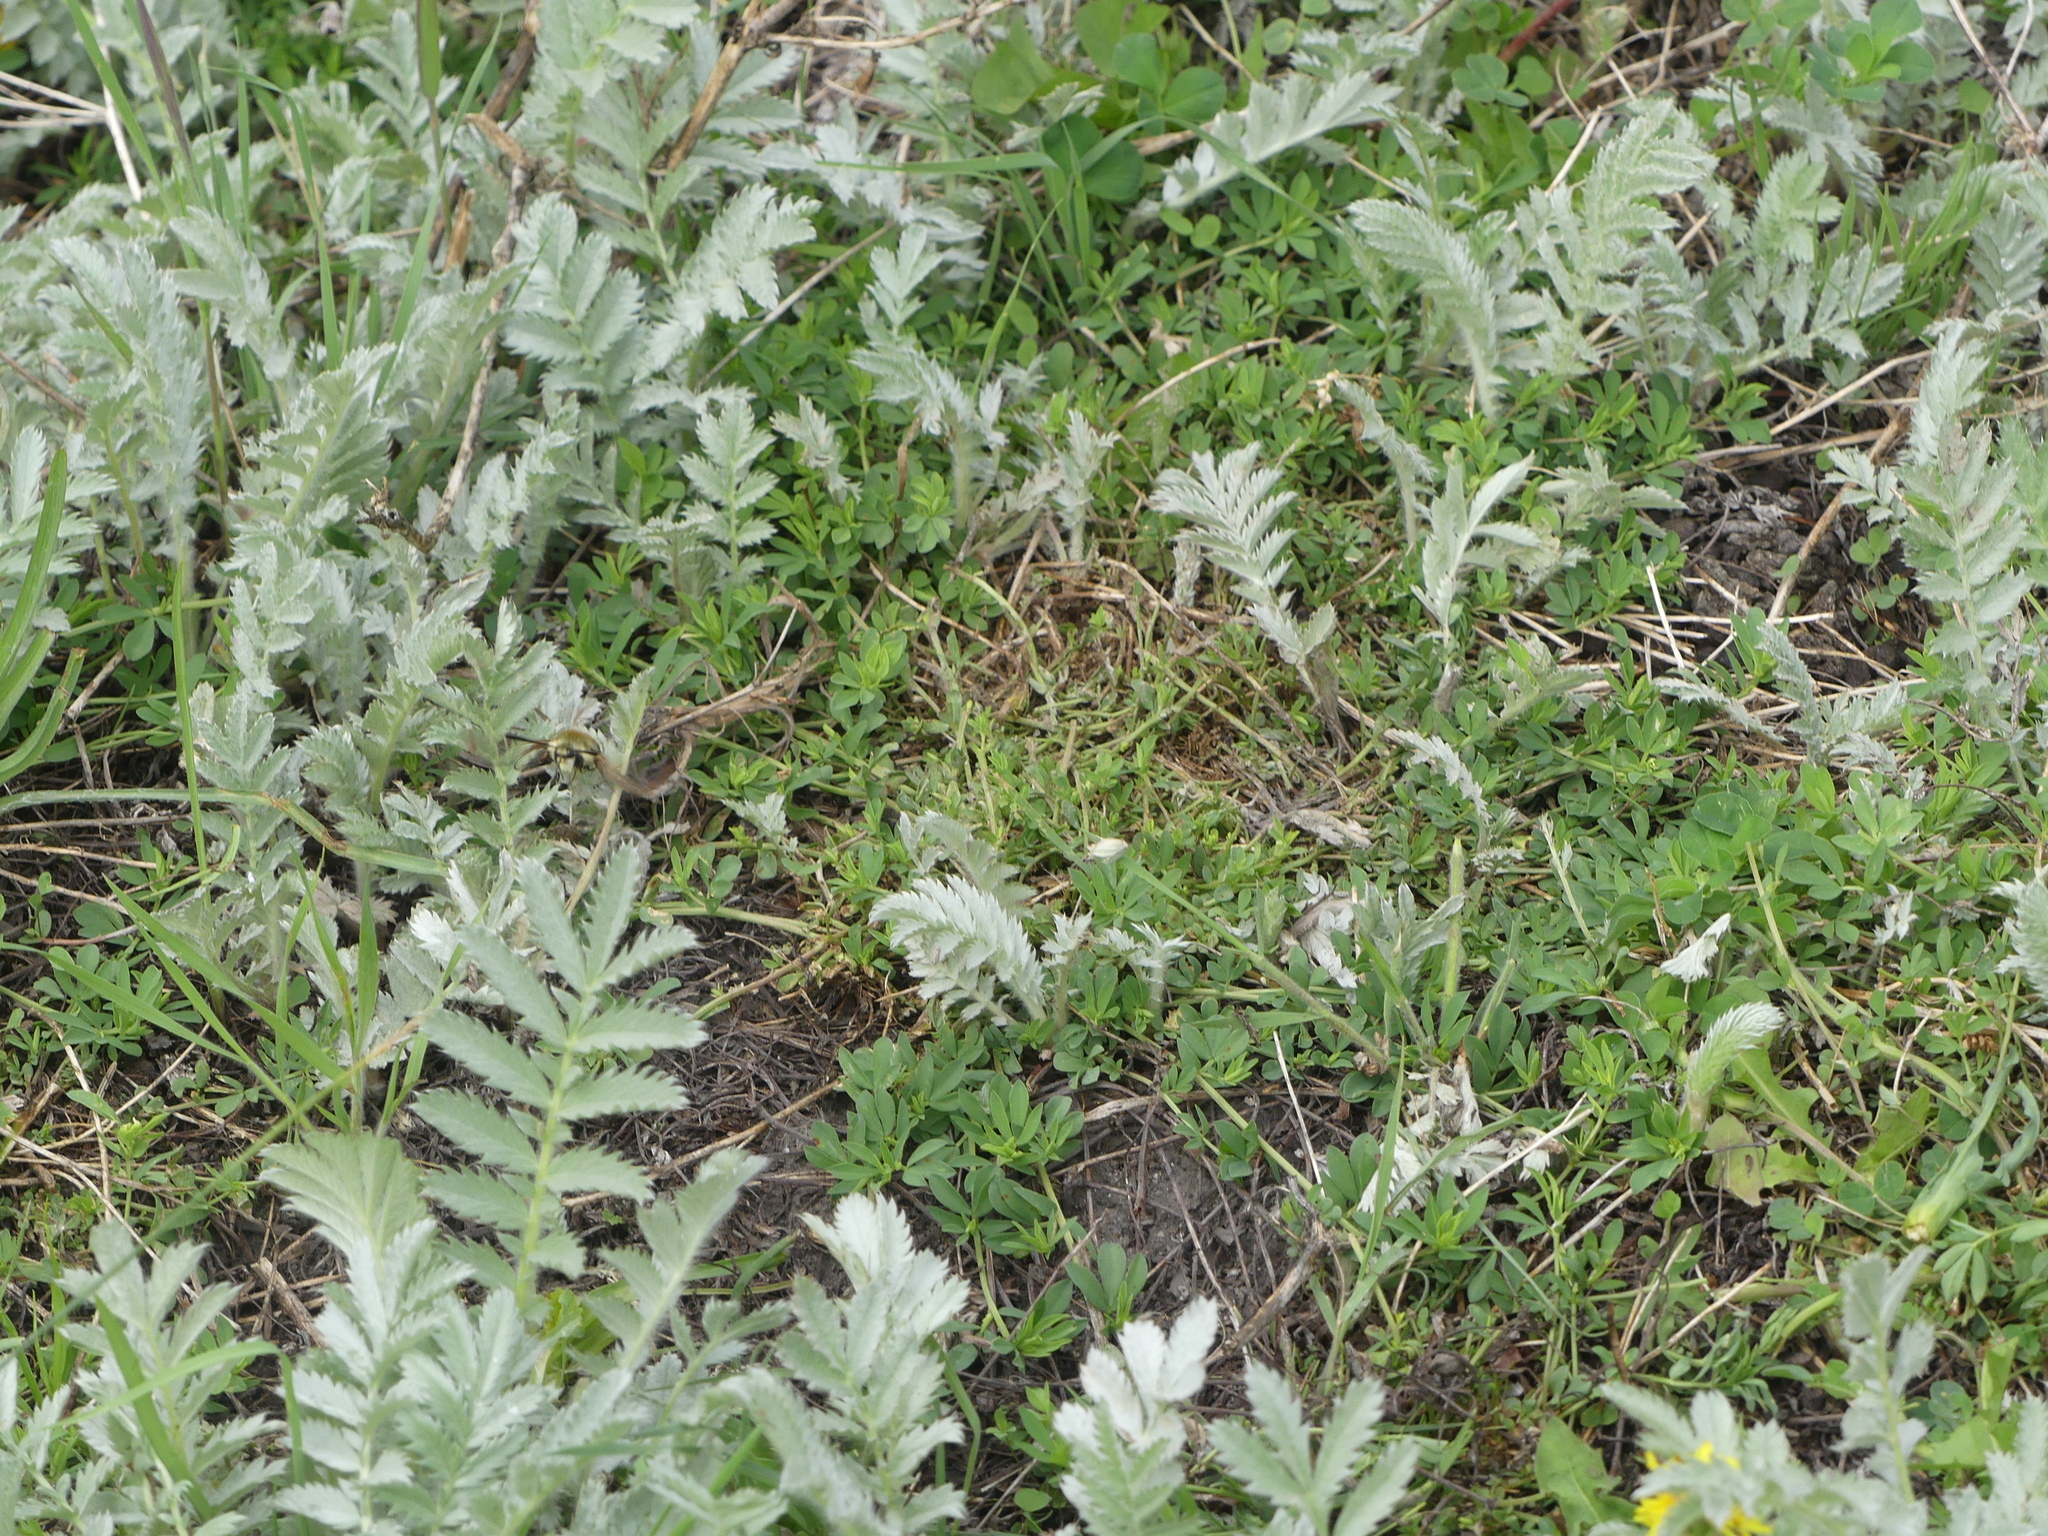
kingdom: Plantae
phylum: Tracheophyta
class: Magnoliopsida
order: Rosales
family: Rosaceae
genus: Argentina
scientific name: Argentina anserina
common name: Common silverweed
